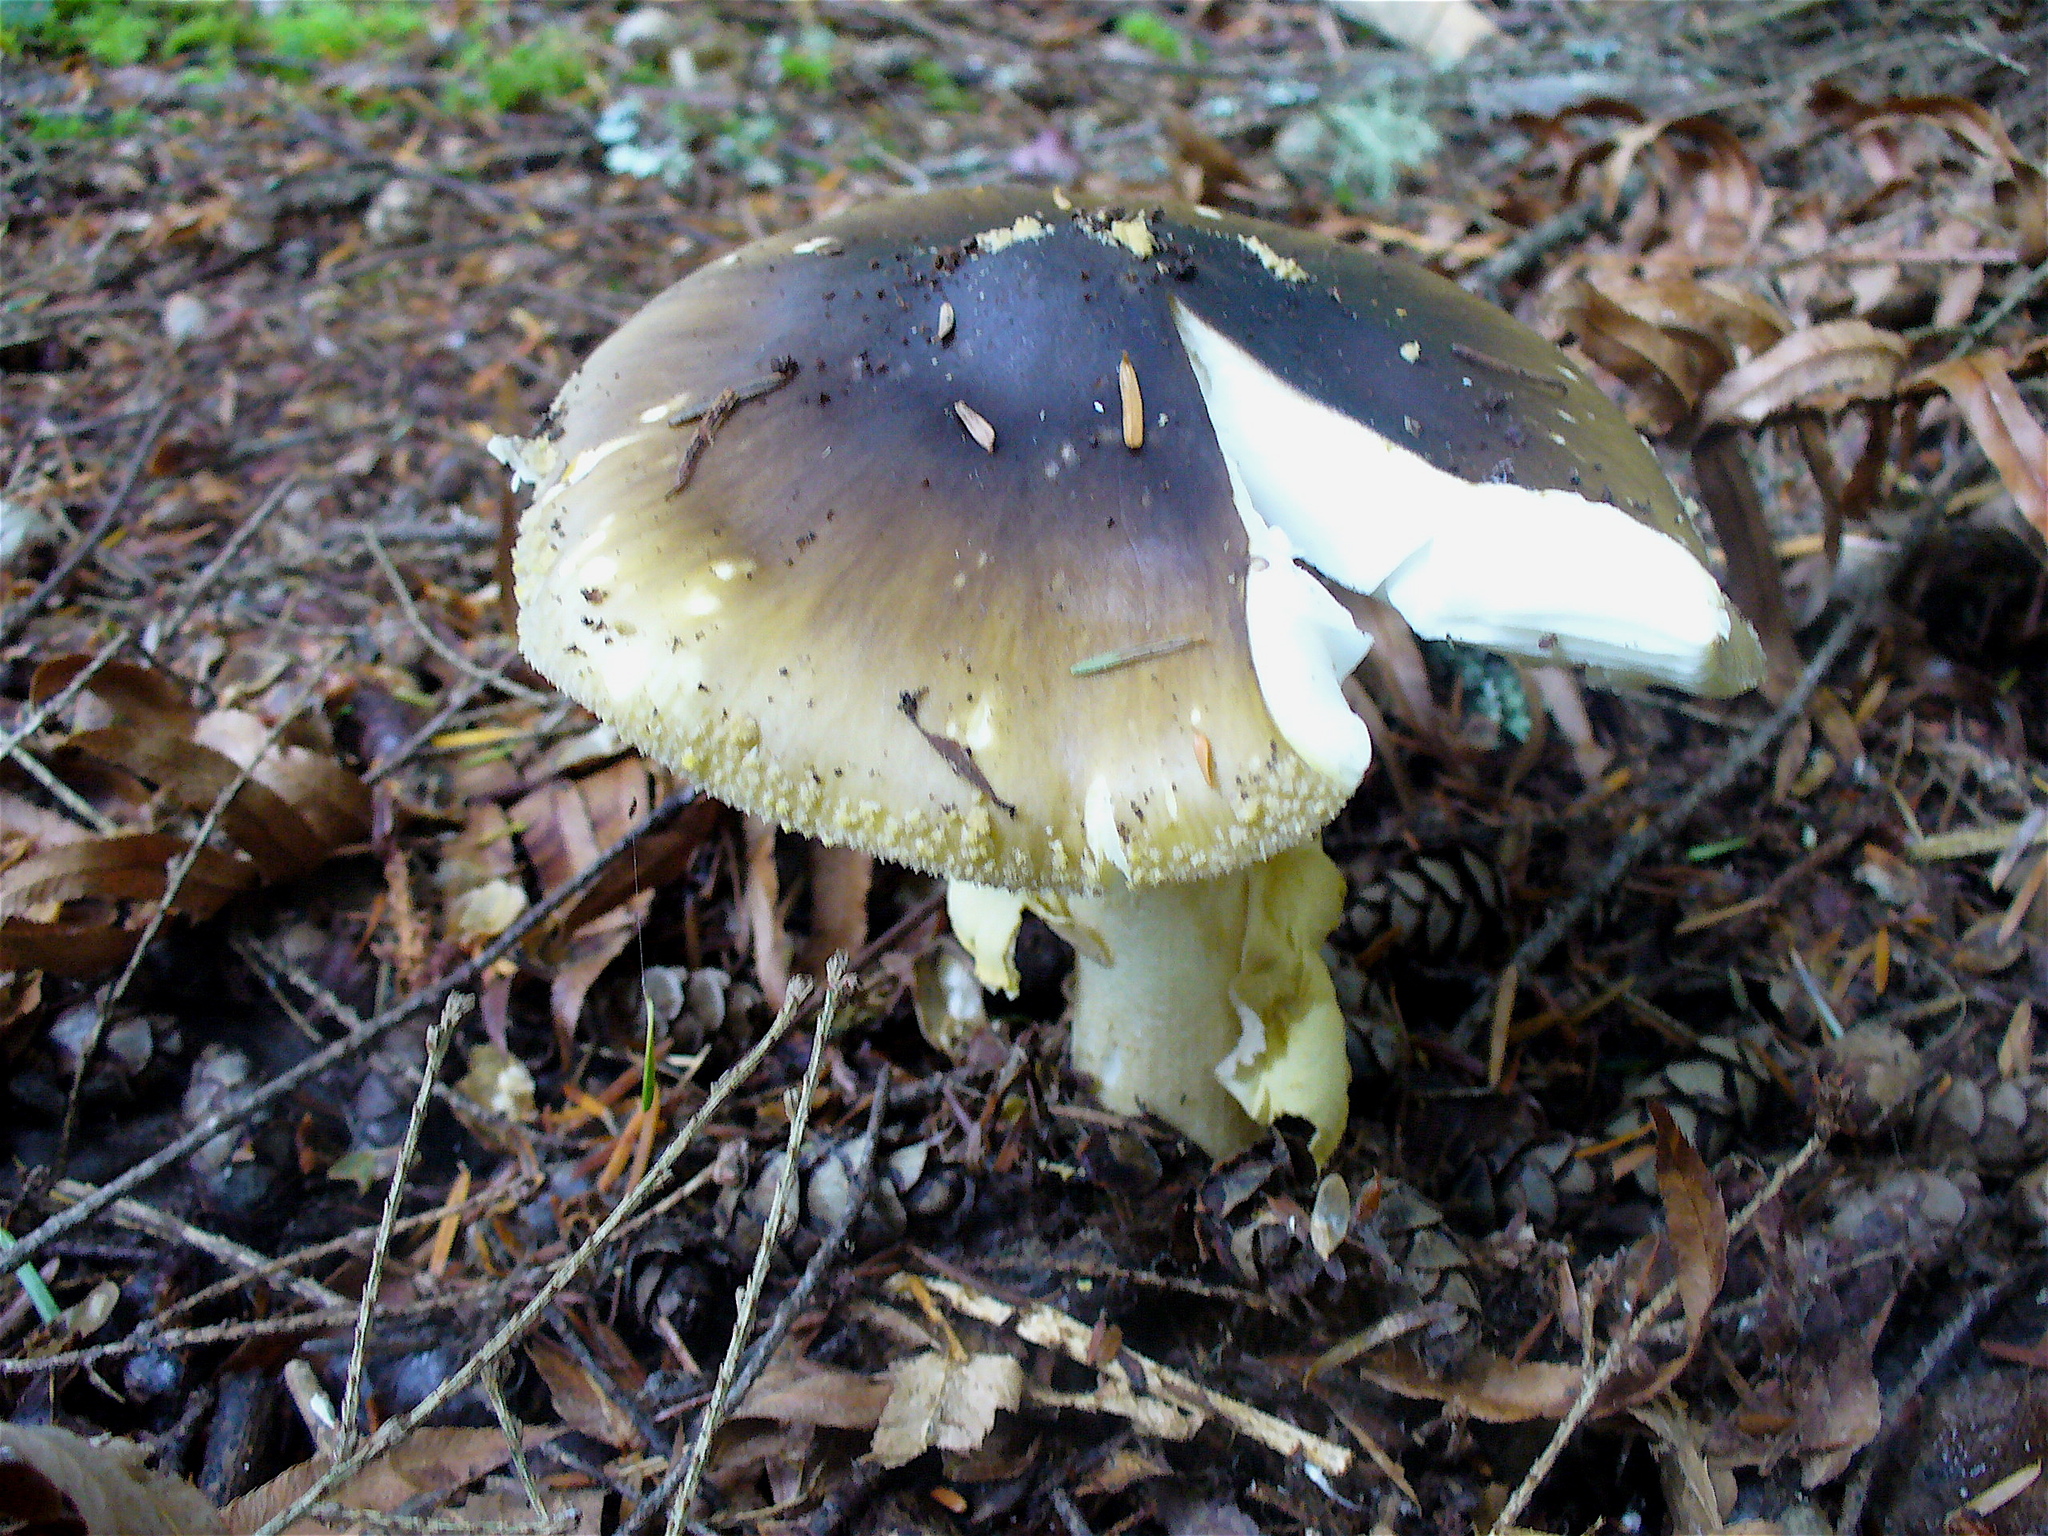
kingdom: Fungi
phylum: Basidiomycota
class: Agaricomycetes
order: Agaricales
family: Amanitaceae
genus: Amanita
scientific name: Amanita augusta
